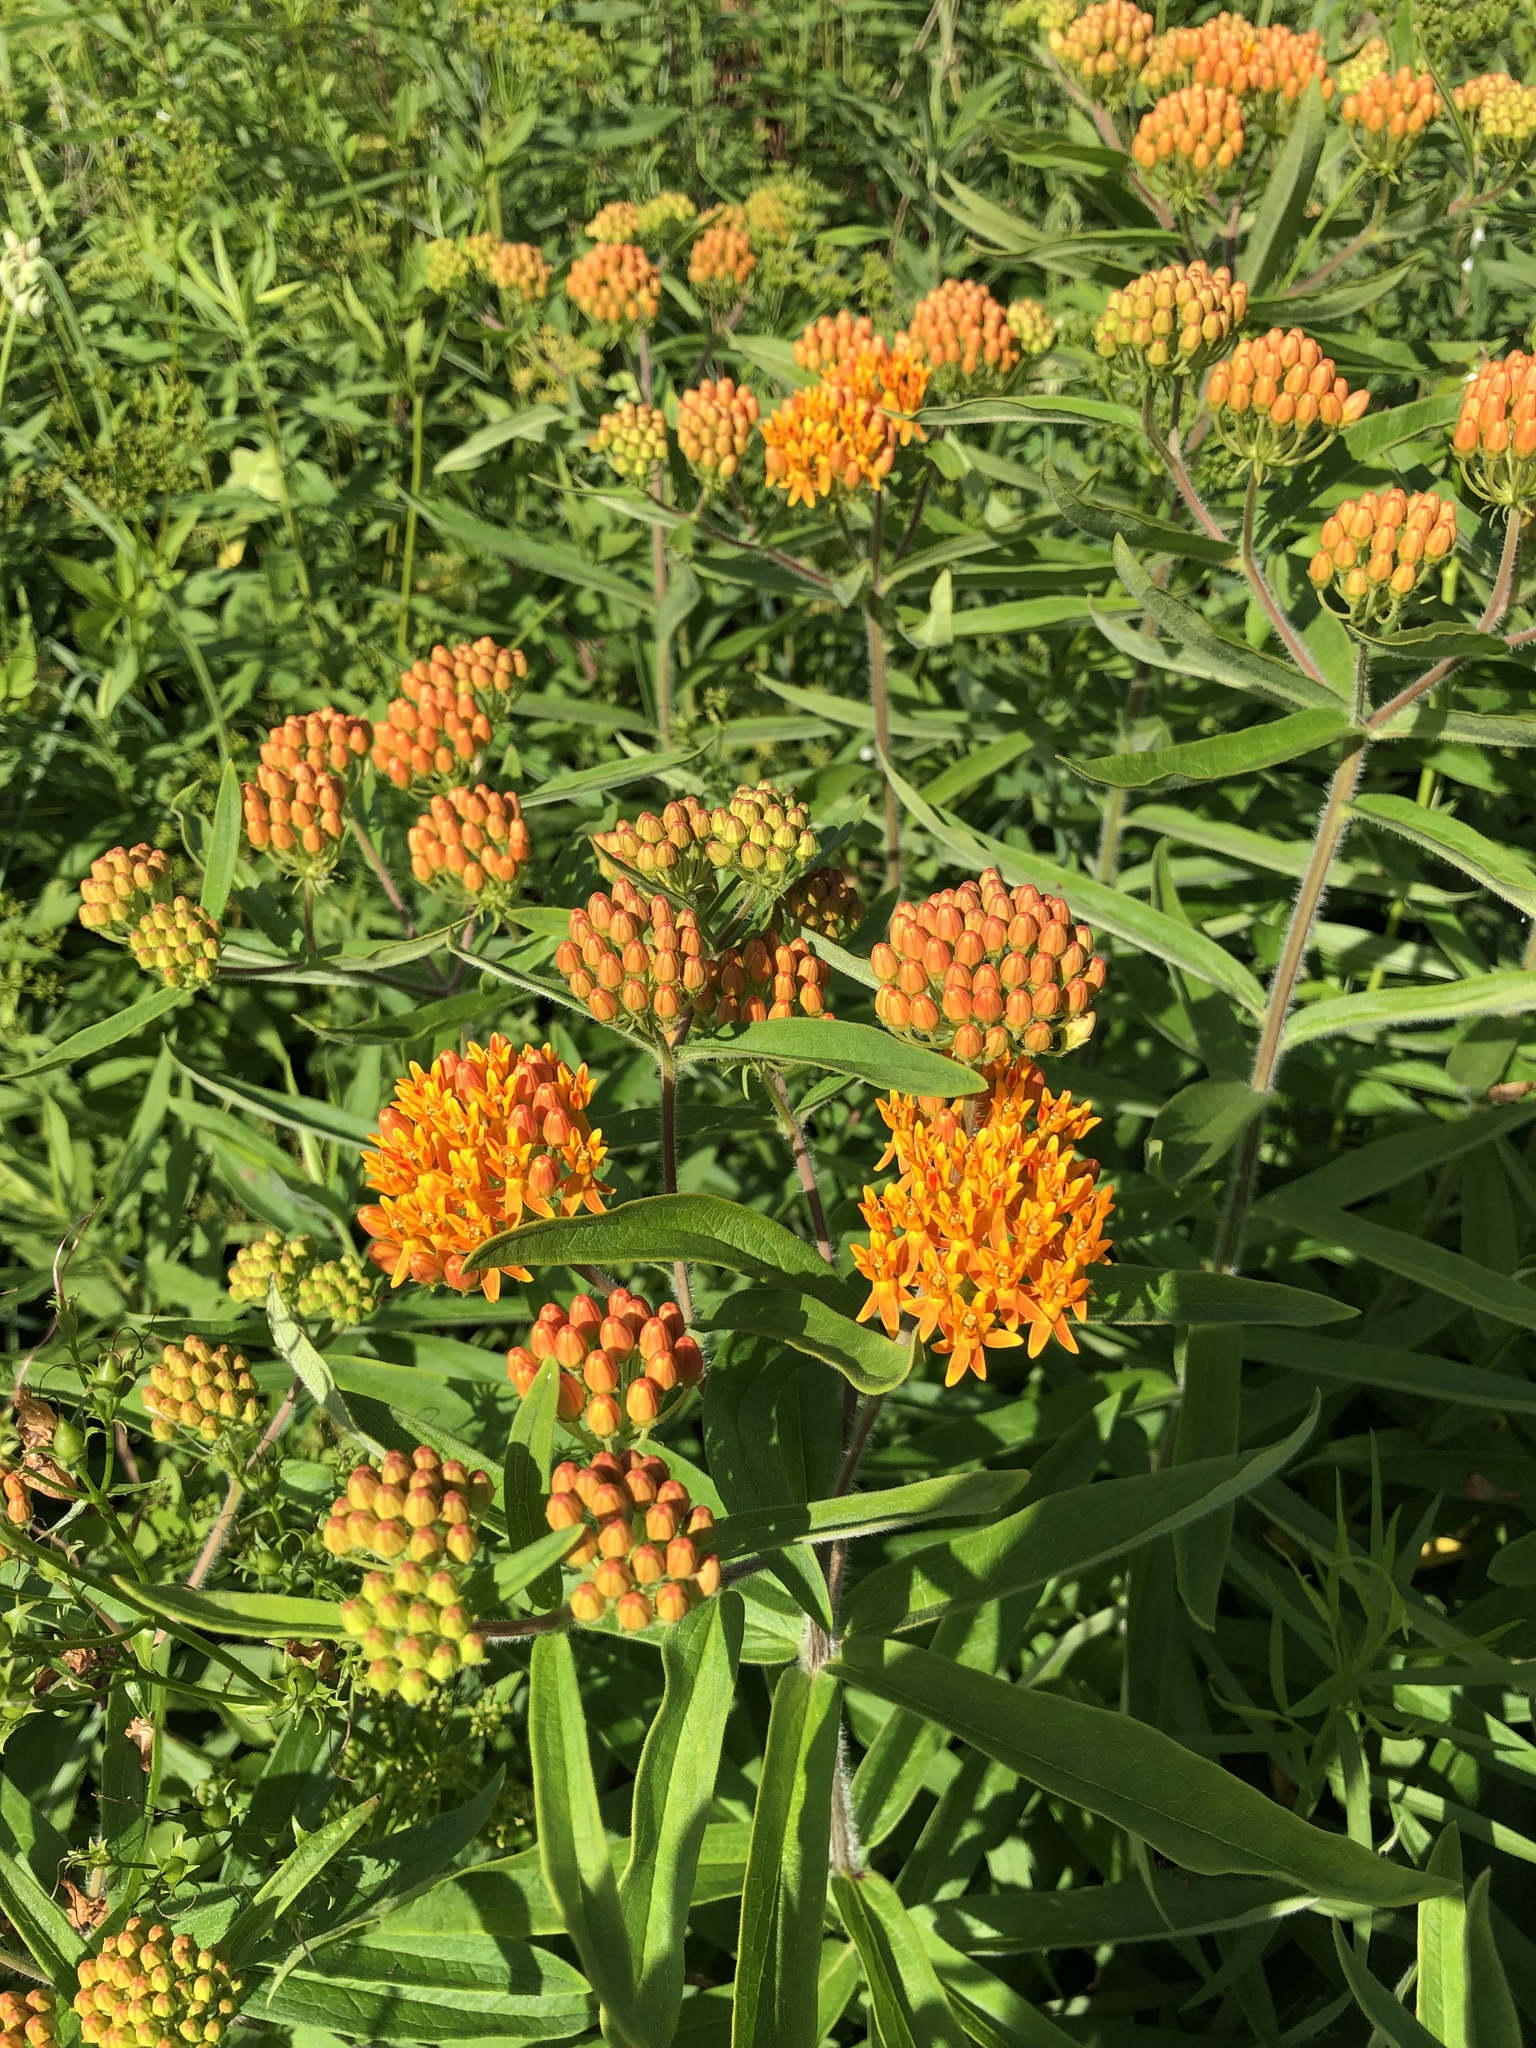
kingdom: Plantae
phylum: Tracheophyta
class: Magnoliopsida
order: Gentianales
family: Apocynaceae
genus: Asclepias
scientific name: Asclepias tuberosa
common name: Butterfly milkweed
